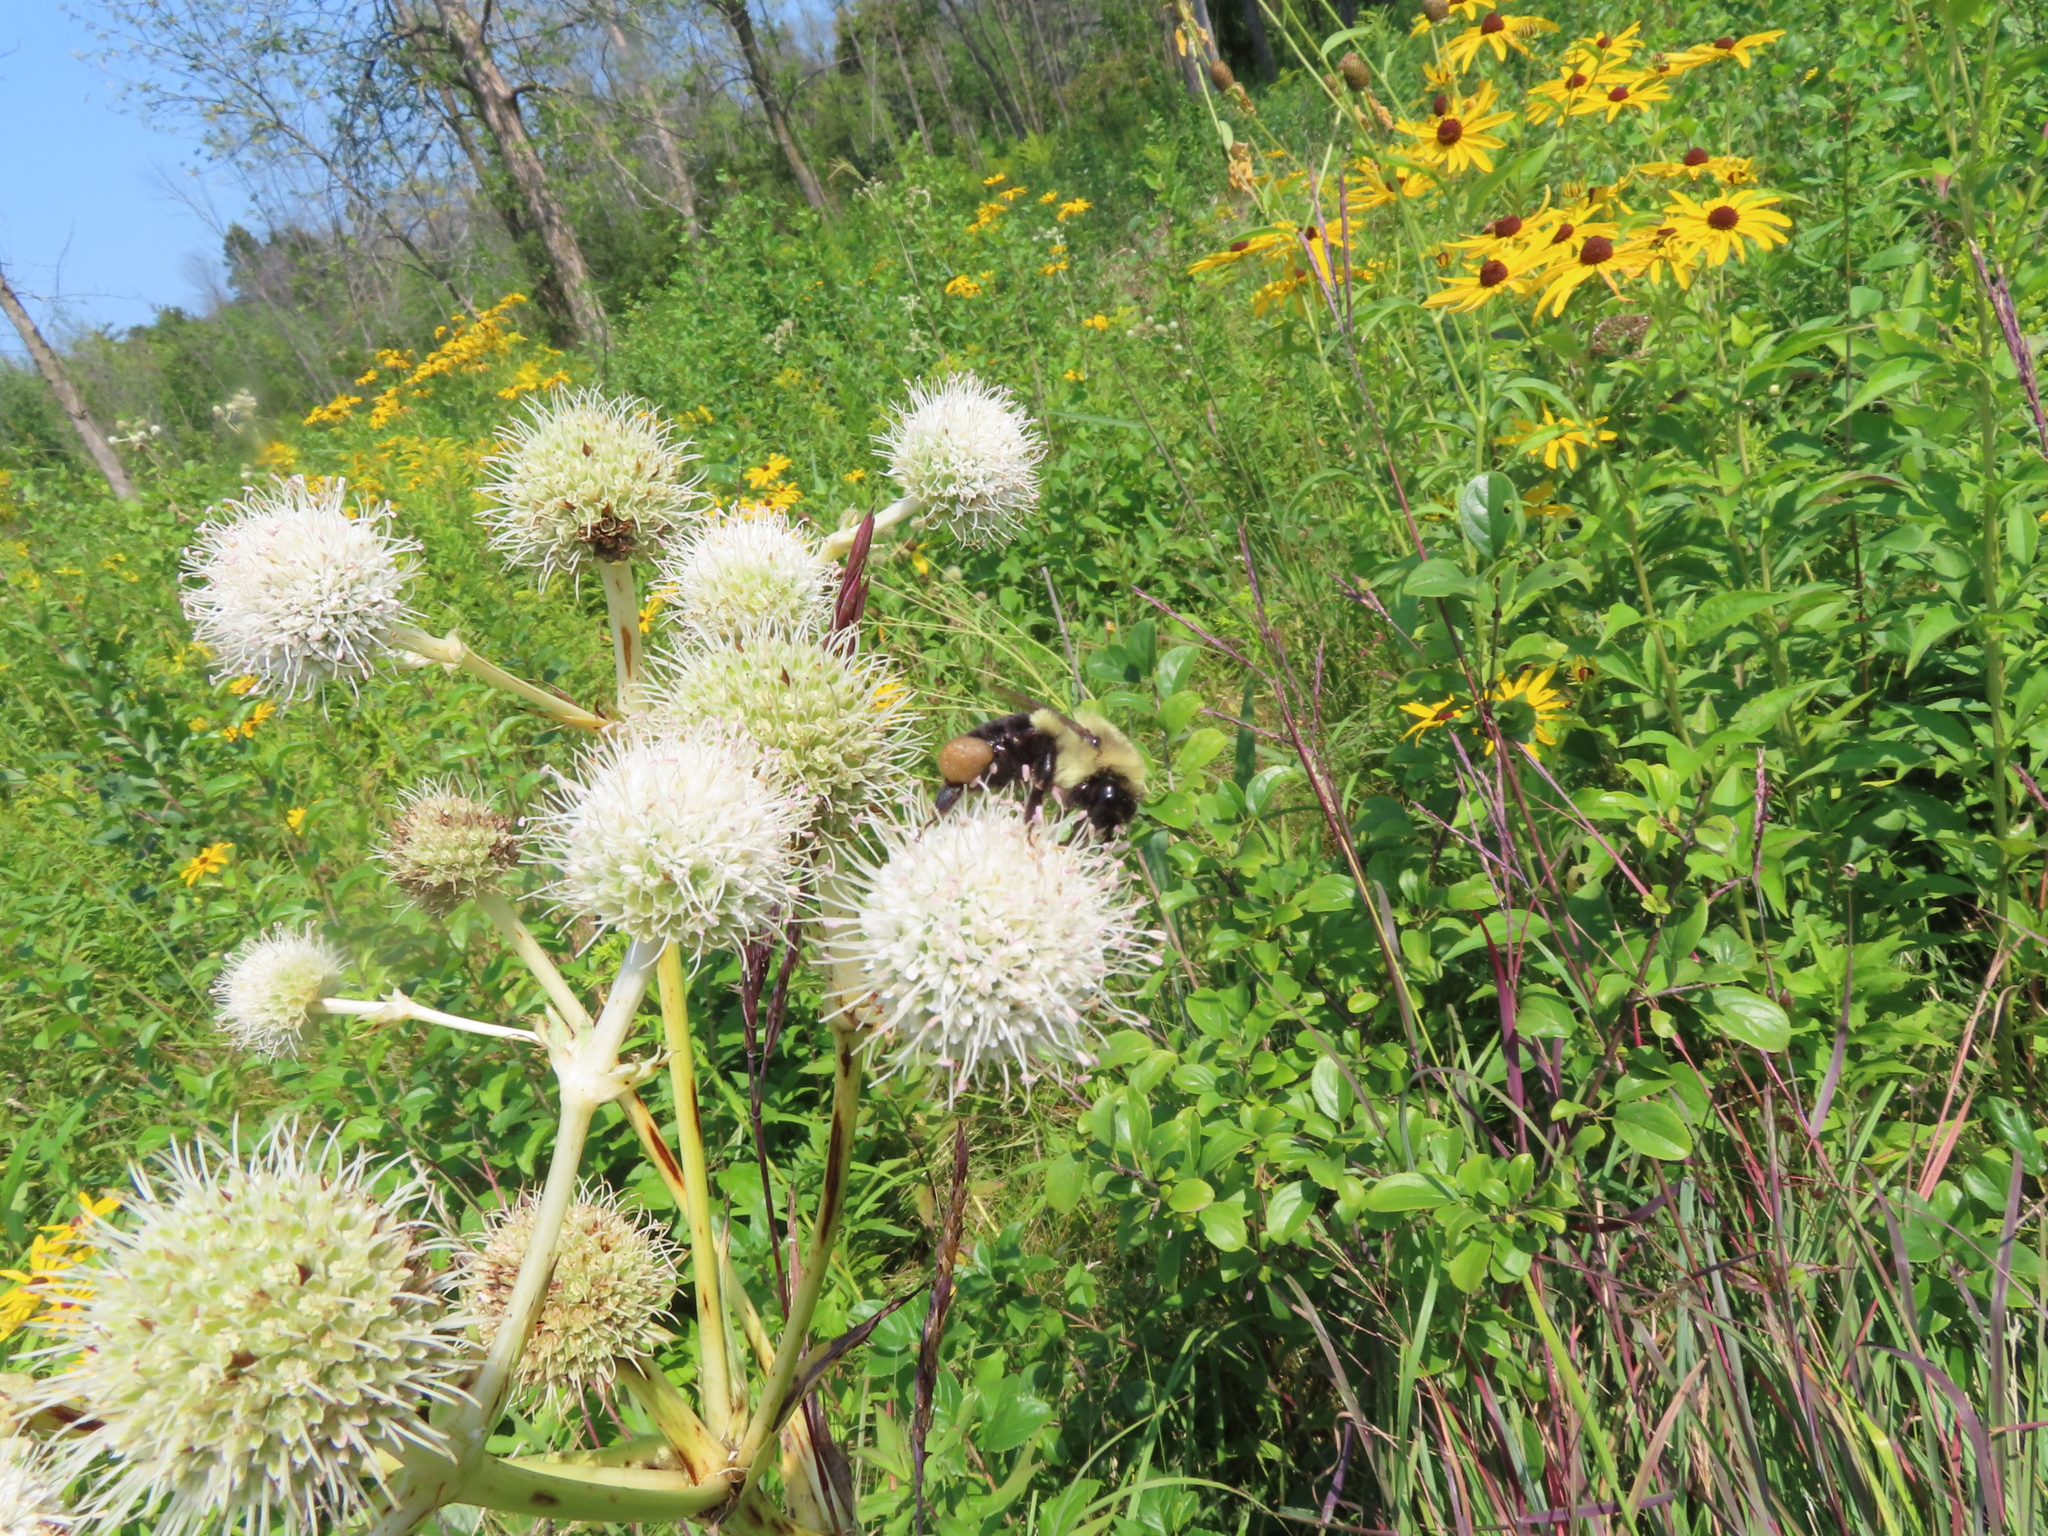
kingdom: Animalia
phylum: Arthropoda
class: Insecta
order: Hymenoptera
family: Apidae
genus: Bombus
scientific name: Bombus impatiens
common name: Common eastern bumble bee
